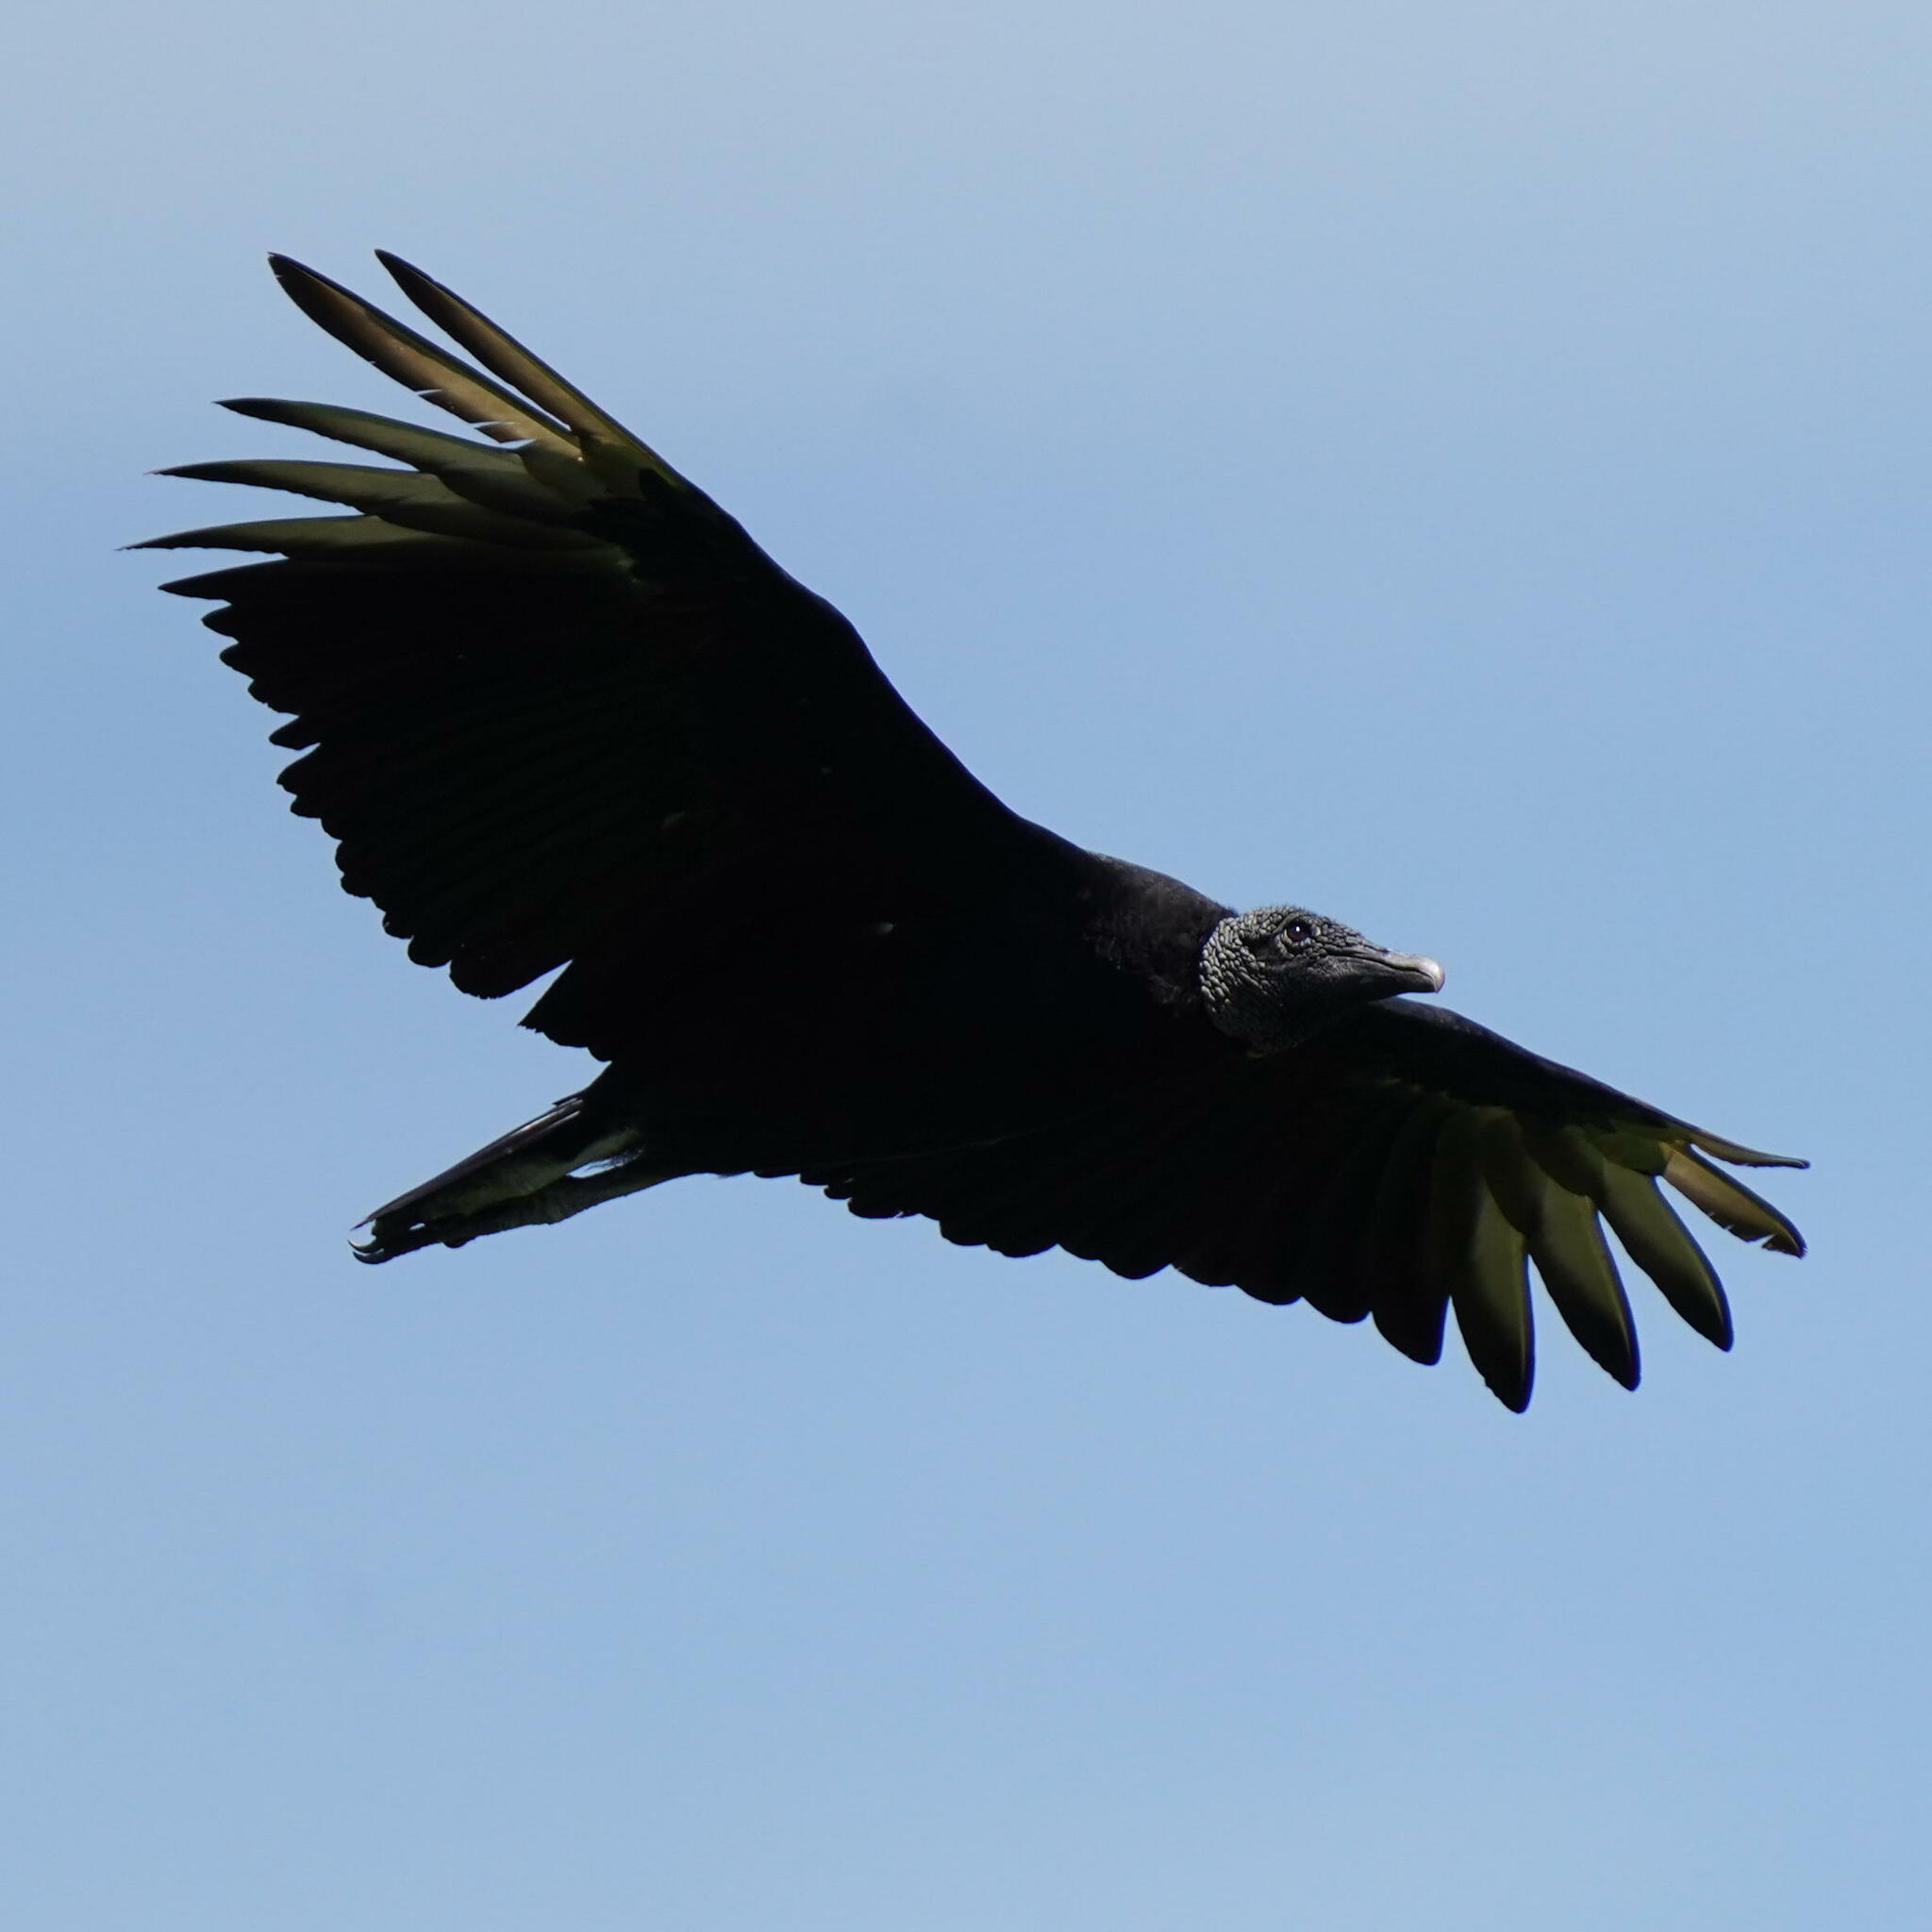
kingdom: Animalia
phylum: Chordata
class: Aves
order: Accipitriformes
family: Cathartidae
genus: Coragyps
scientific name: Coragyps atratus
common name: Black vulture
